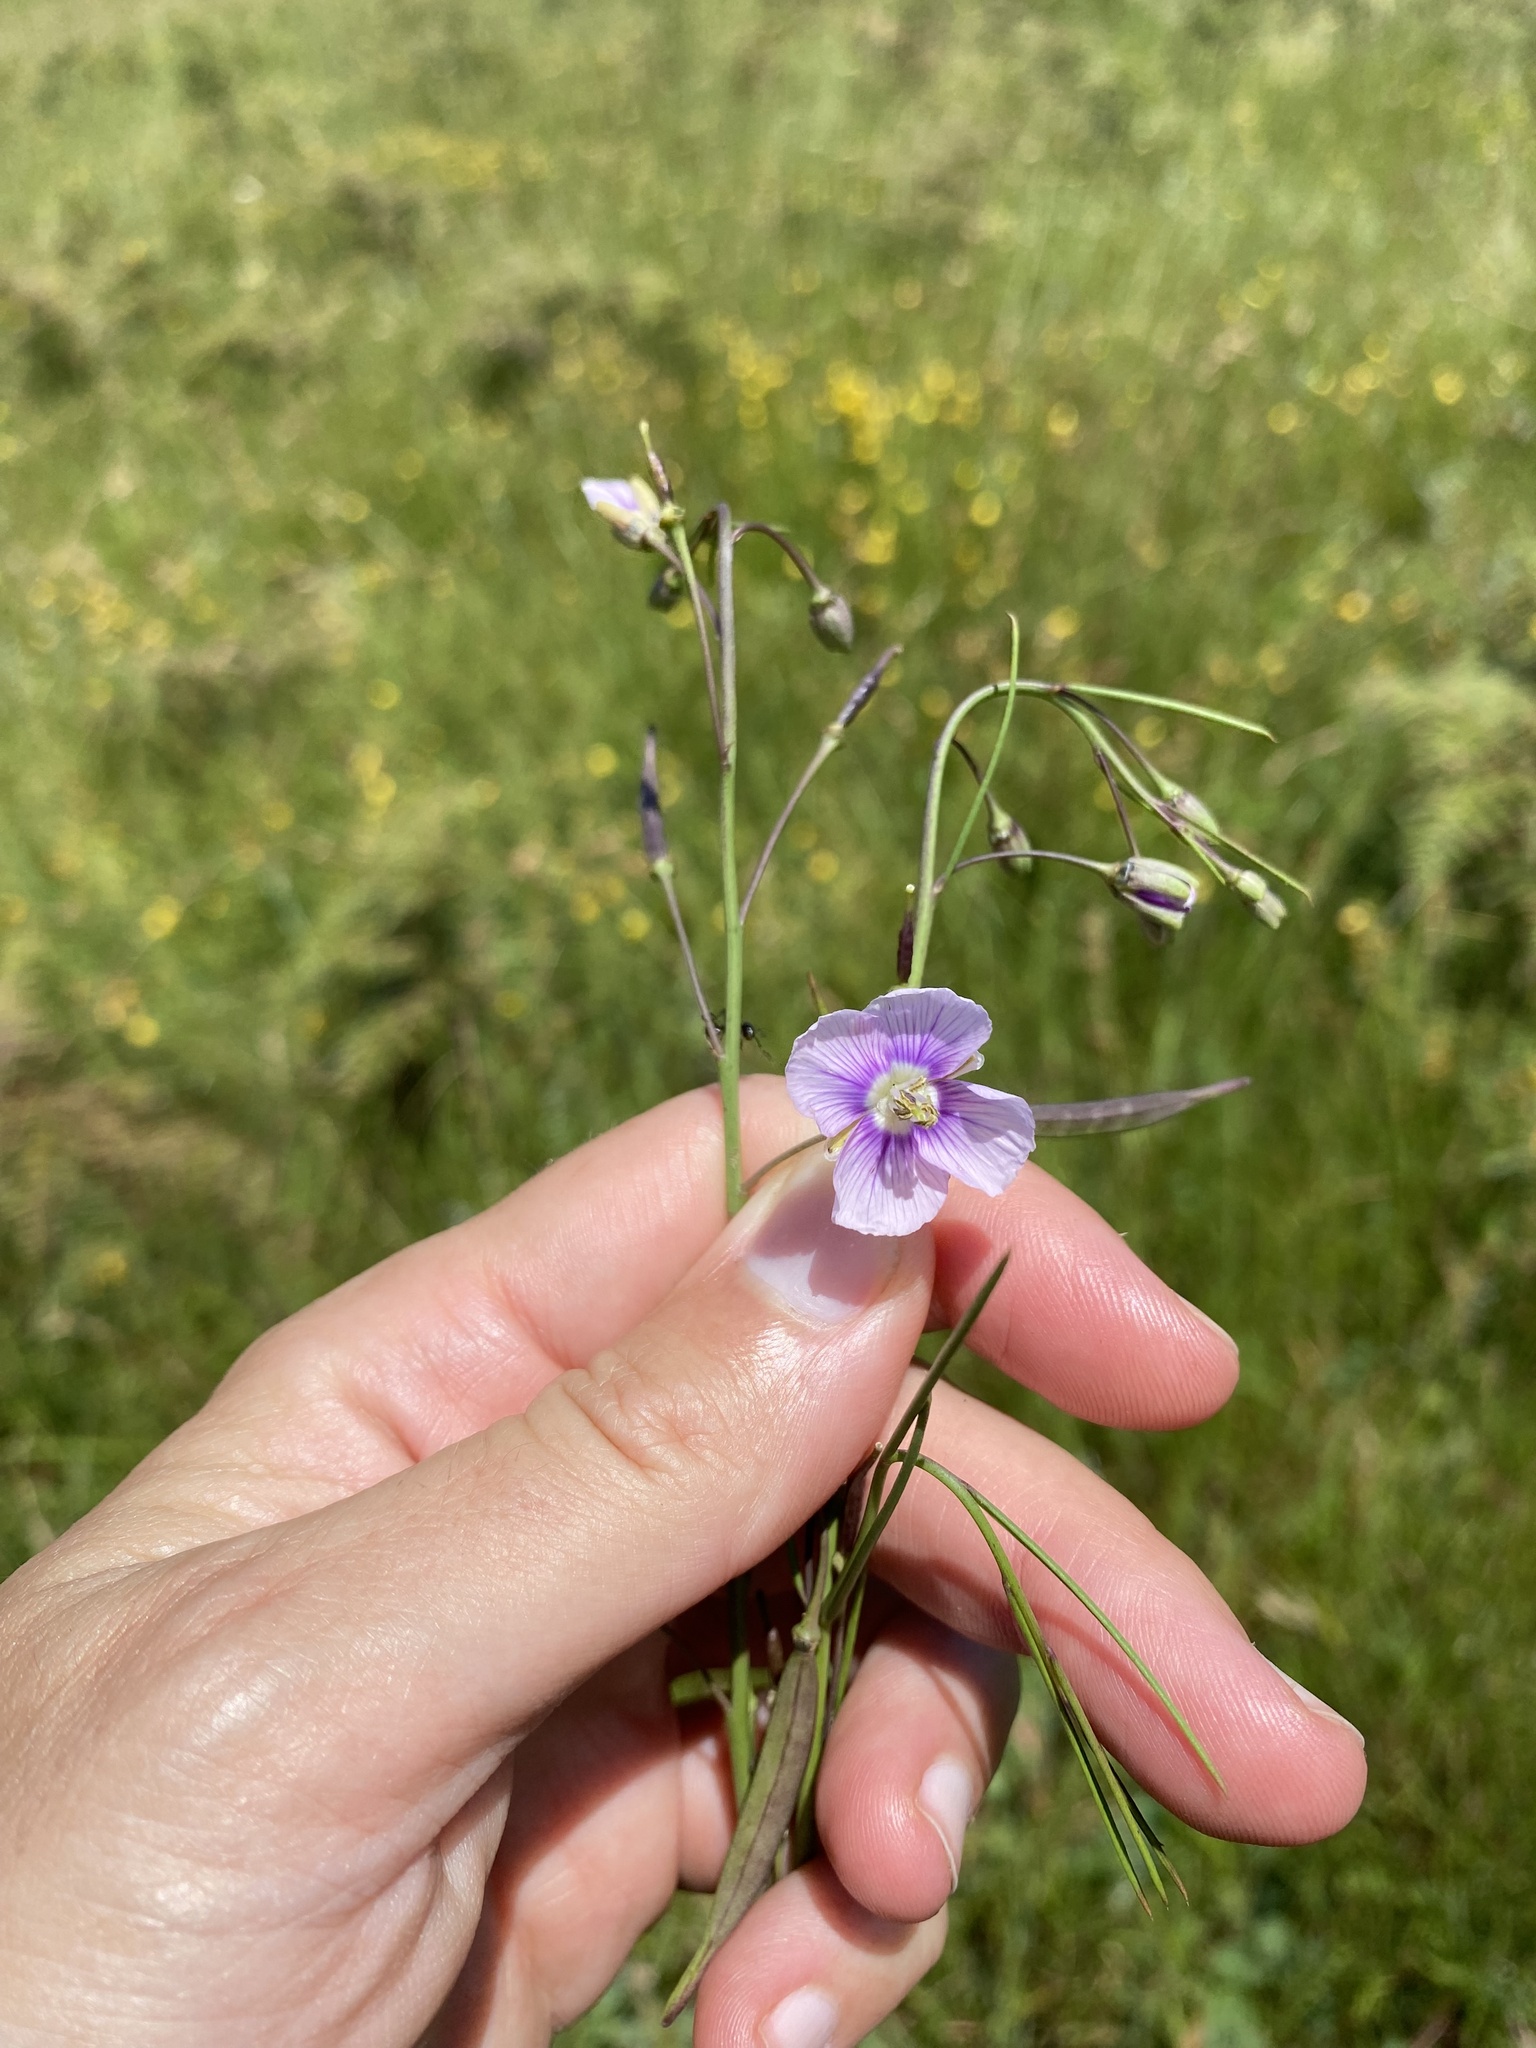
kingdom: Plantae
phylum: Tracheophyta
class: Magnoliopsida
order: Brassicales
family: Brassicaceae
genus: Heliophila
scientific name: Heliophila rigidiuscula
